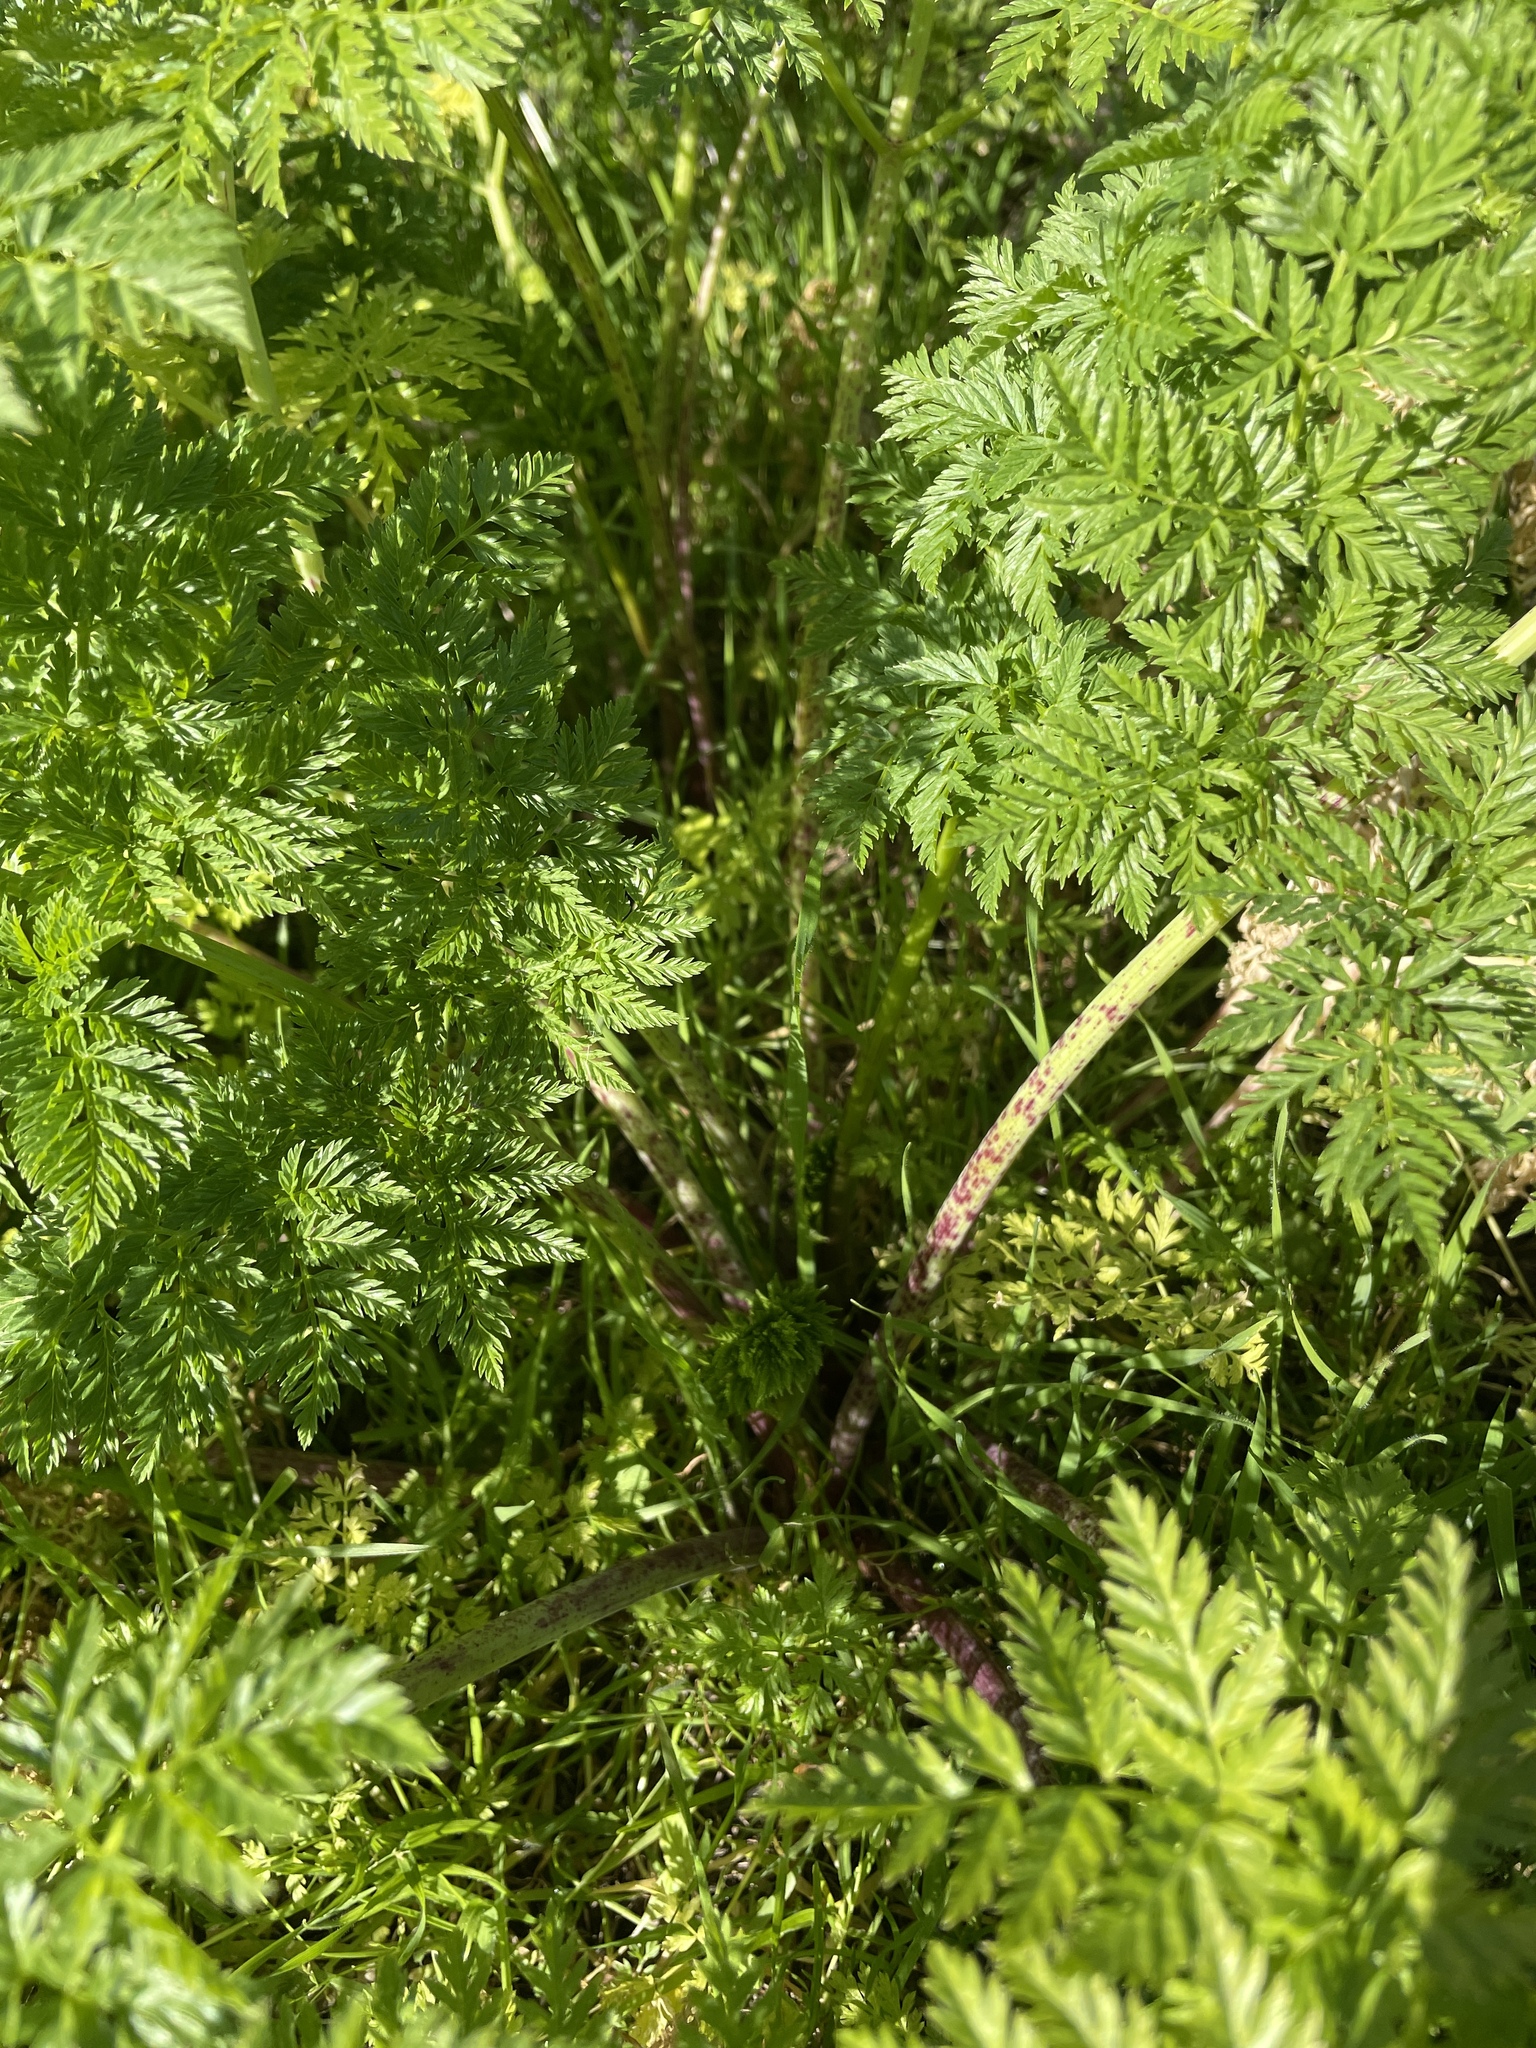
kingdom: Plantae
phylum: Tracheophyta
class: Magnoliopsida
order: Apiales
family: Apiaceae
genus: Conium
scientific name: Conium maculatum
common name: Hemlock
